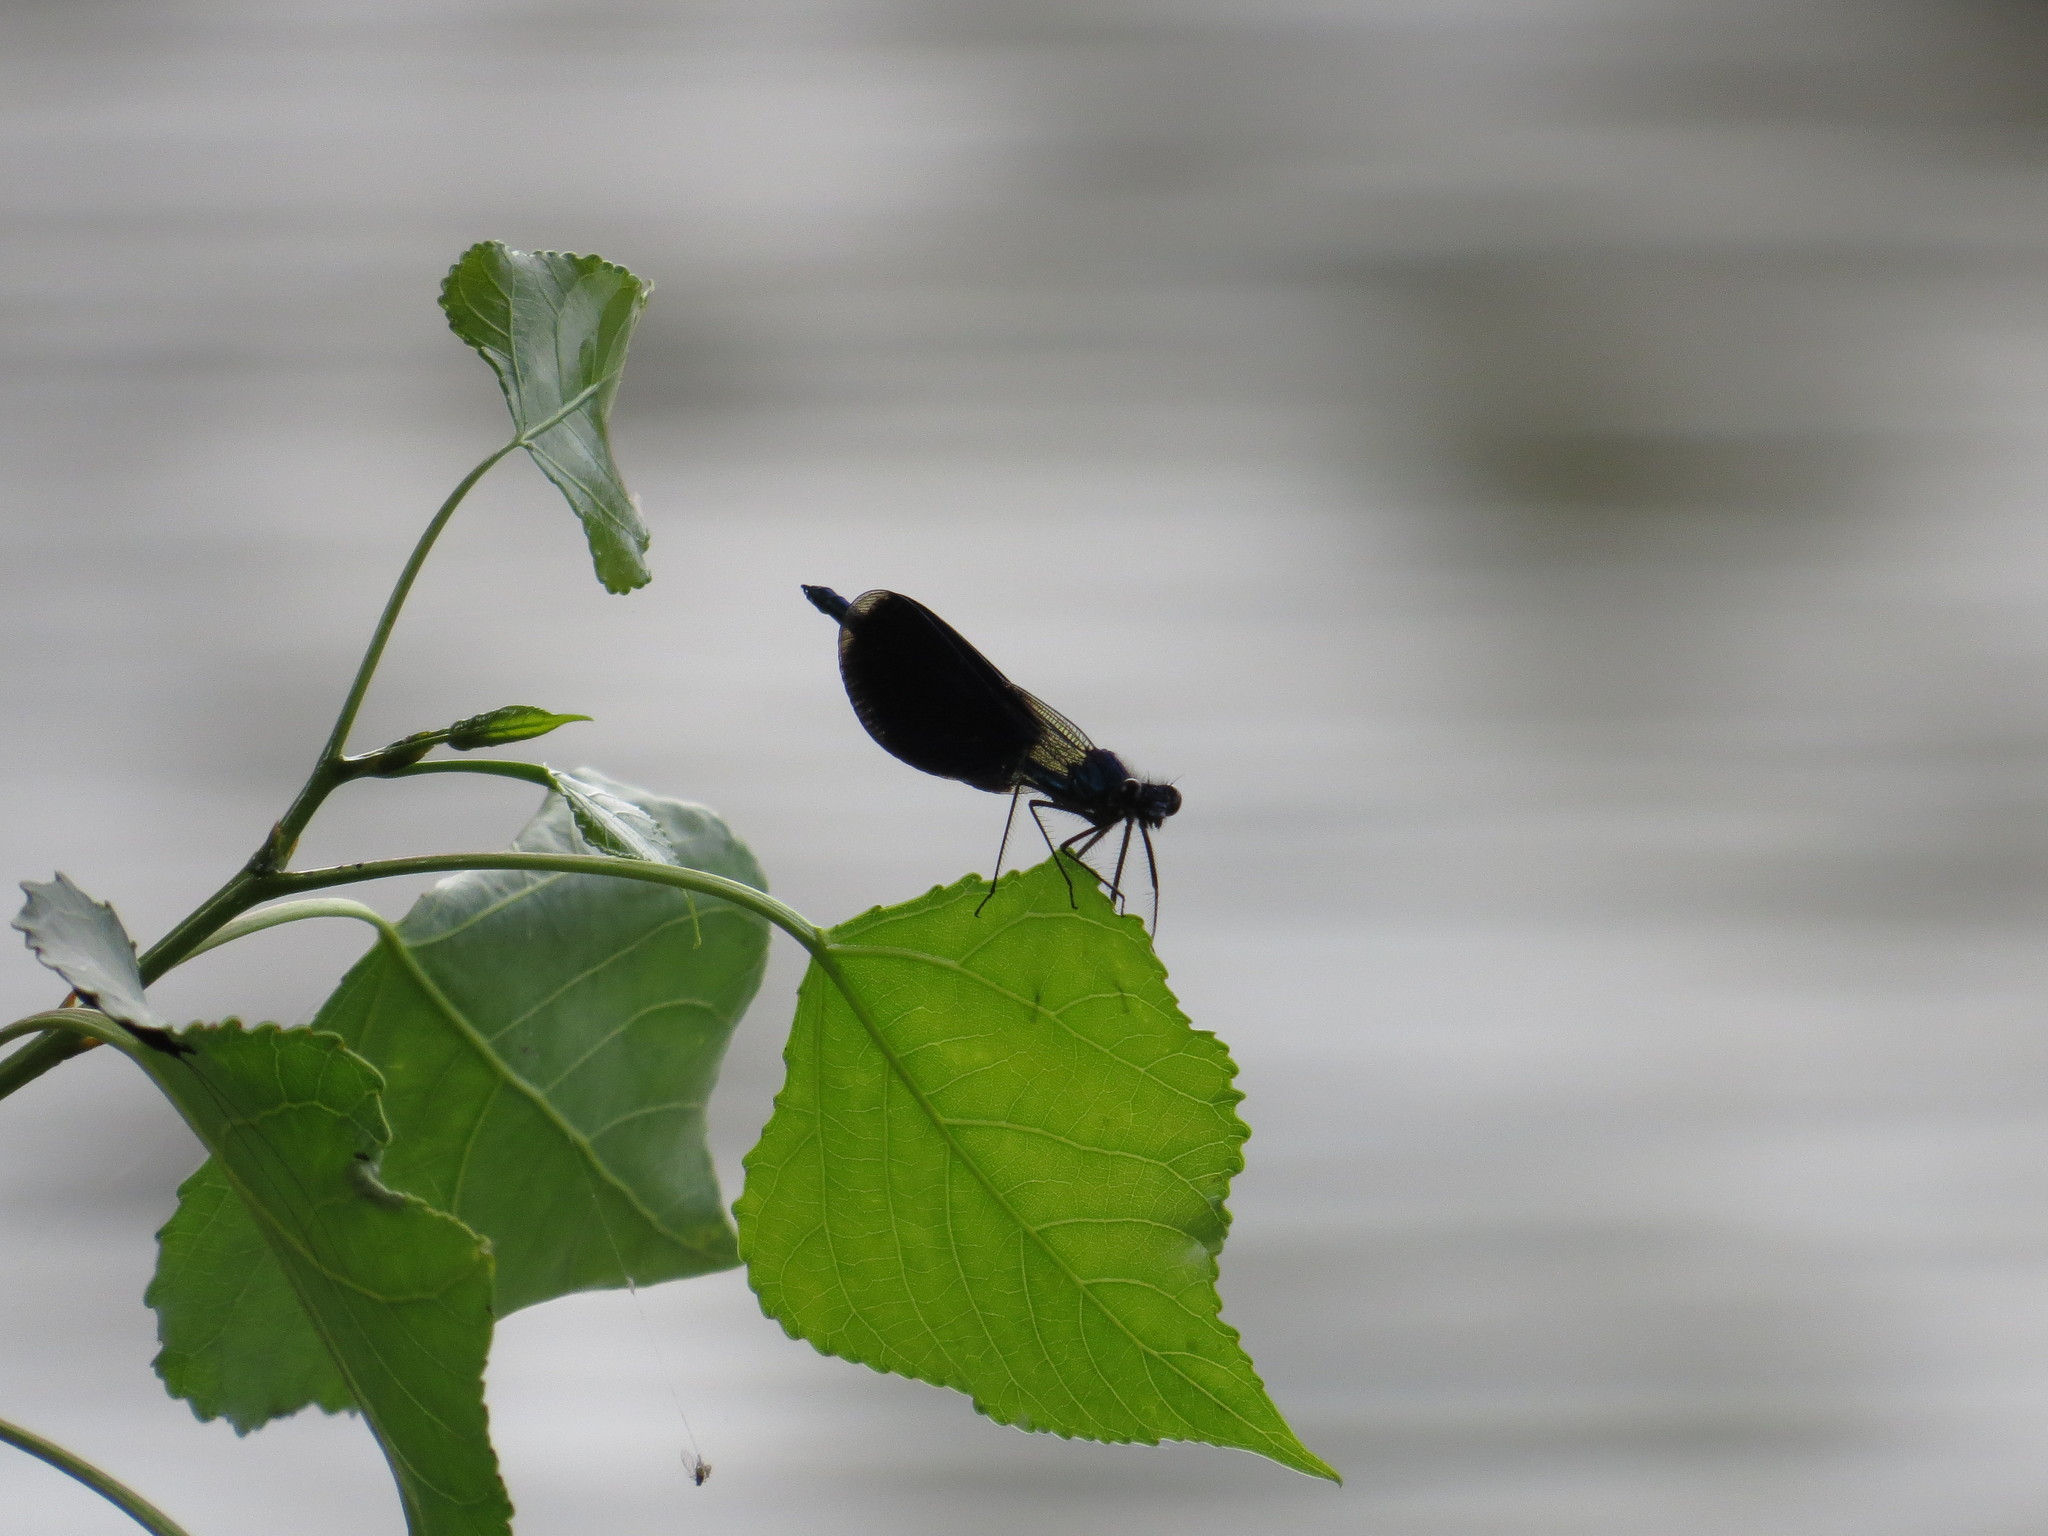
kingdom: Animalia
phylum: Arthropoda
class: Insecta
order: Odonata
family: Calopterygidae
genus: Calopteryx
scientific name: Calopteryx splendens
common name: Banded demoiselle
